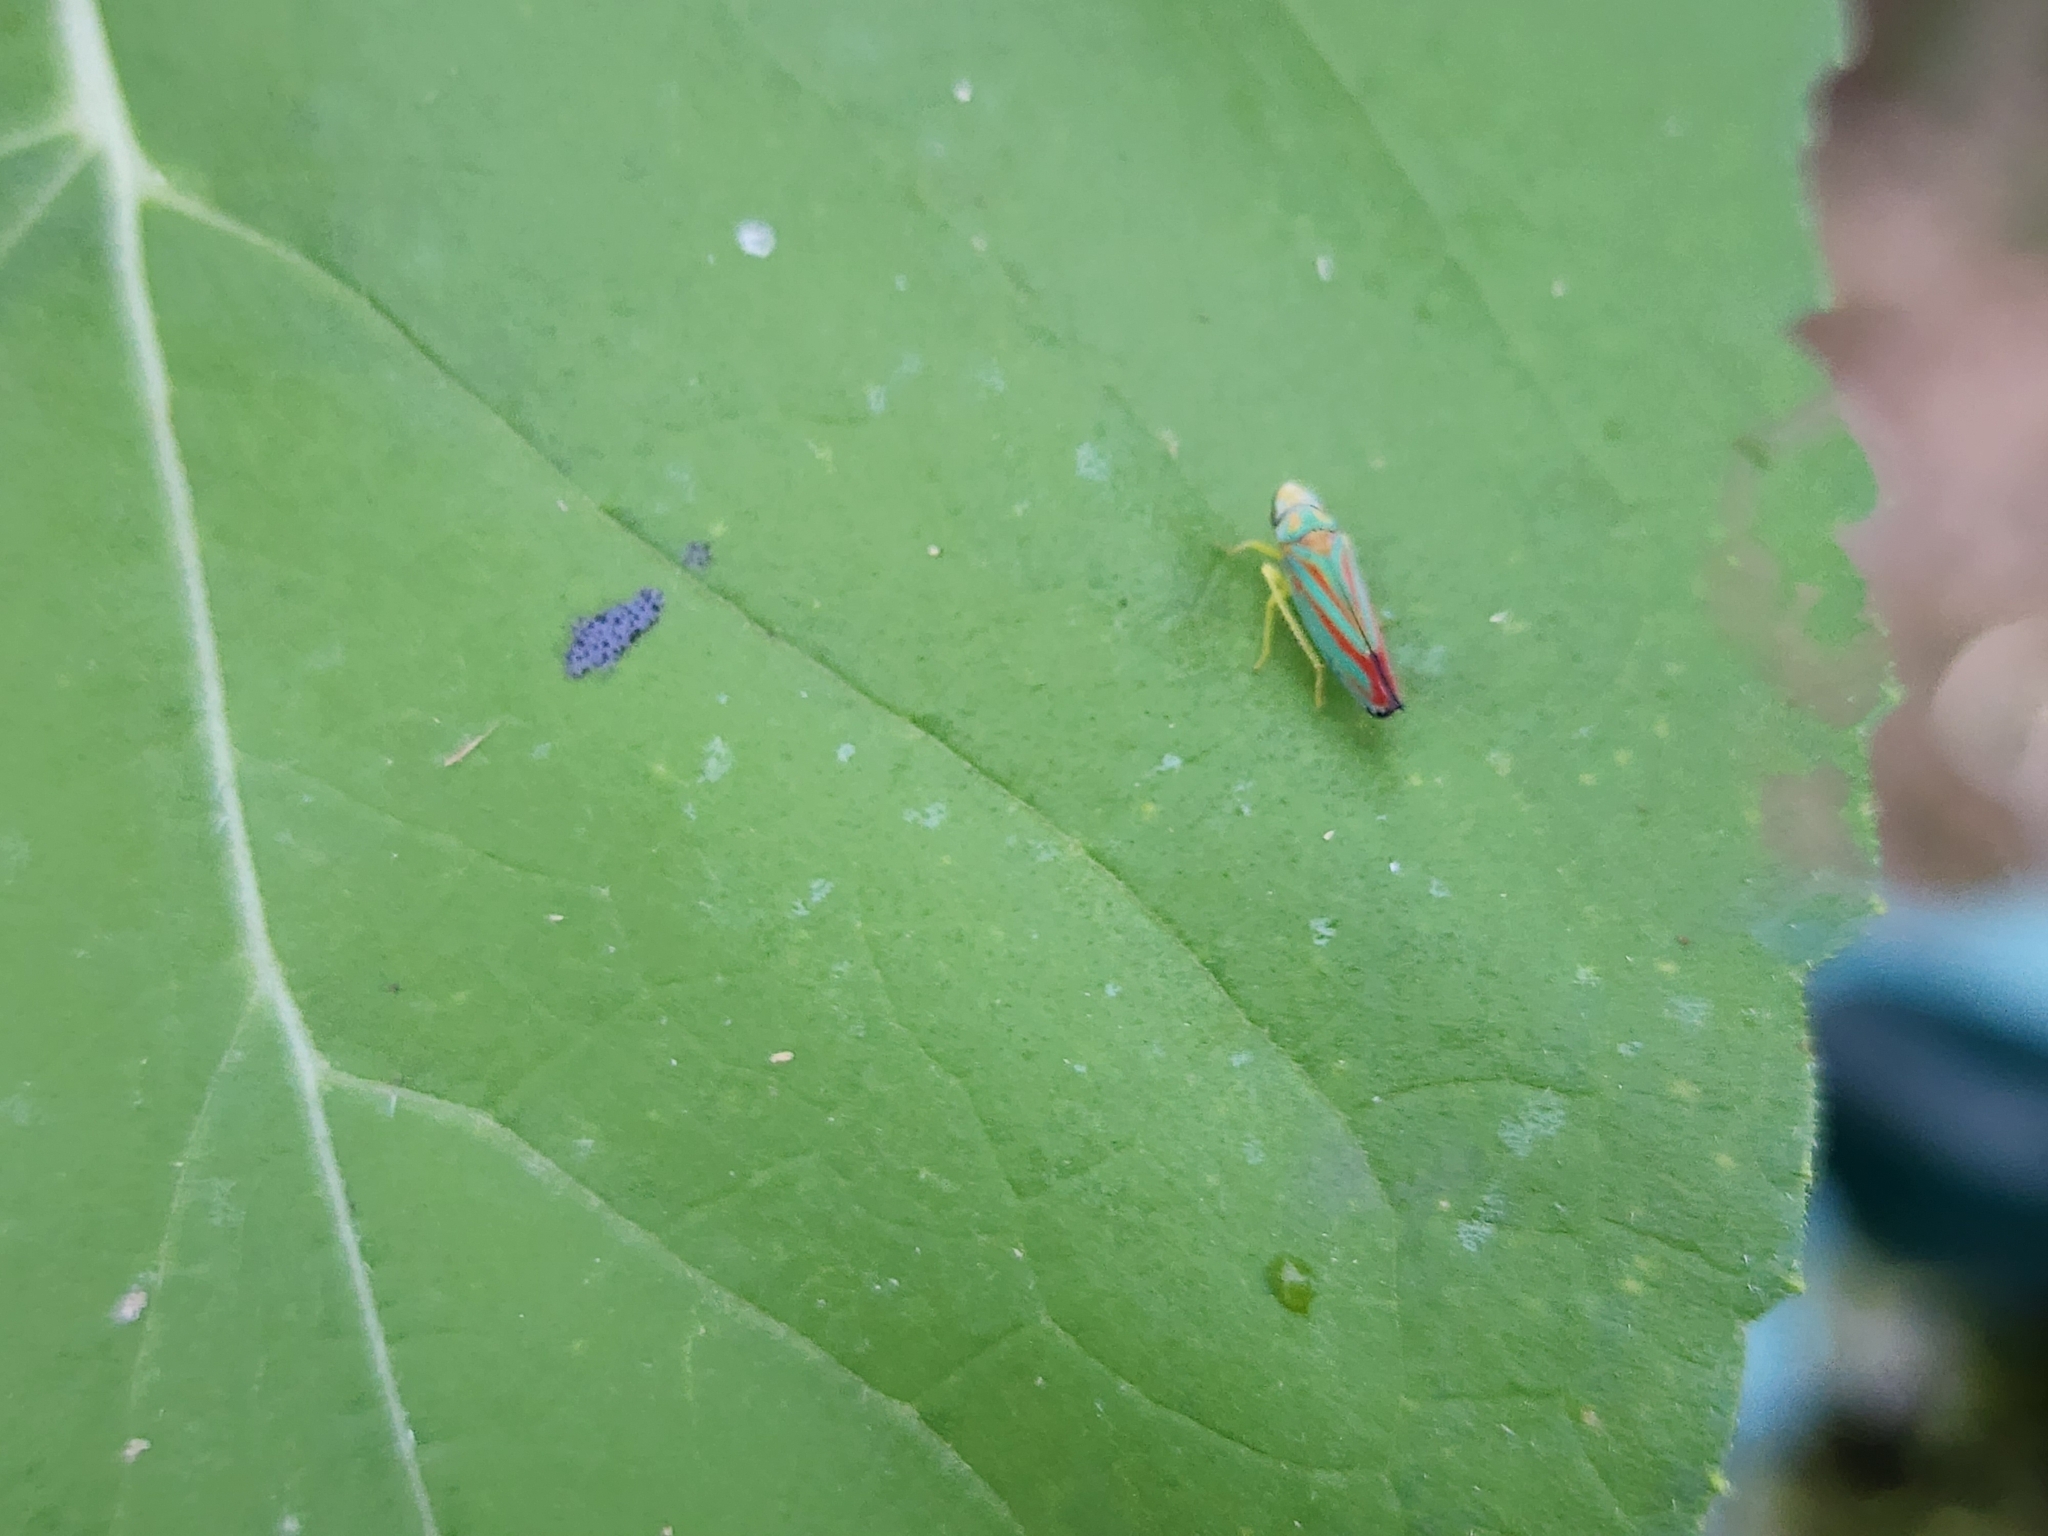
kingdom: Animalia
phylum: Arthropoda
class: Insecta
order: Hemiptera
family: Cicadellidae
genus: Graphocephala
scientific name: Graphocephala coccinea
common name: Candy-striped leafhopper
